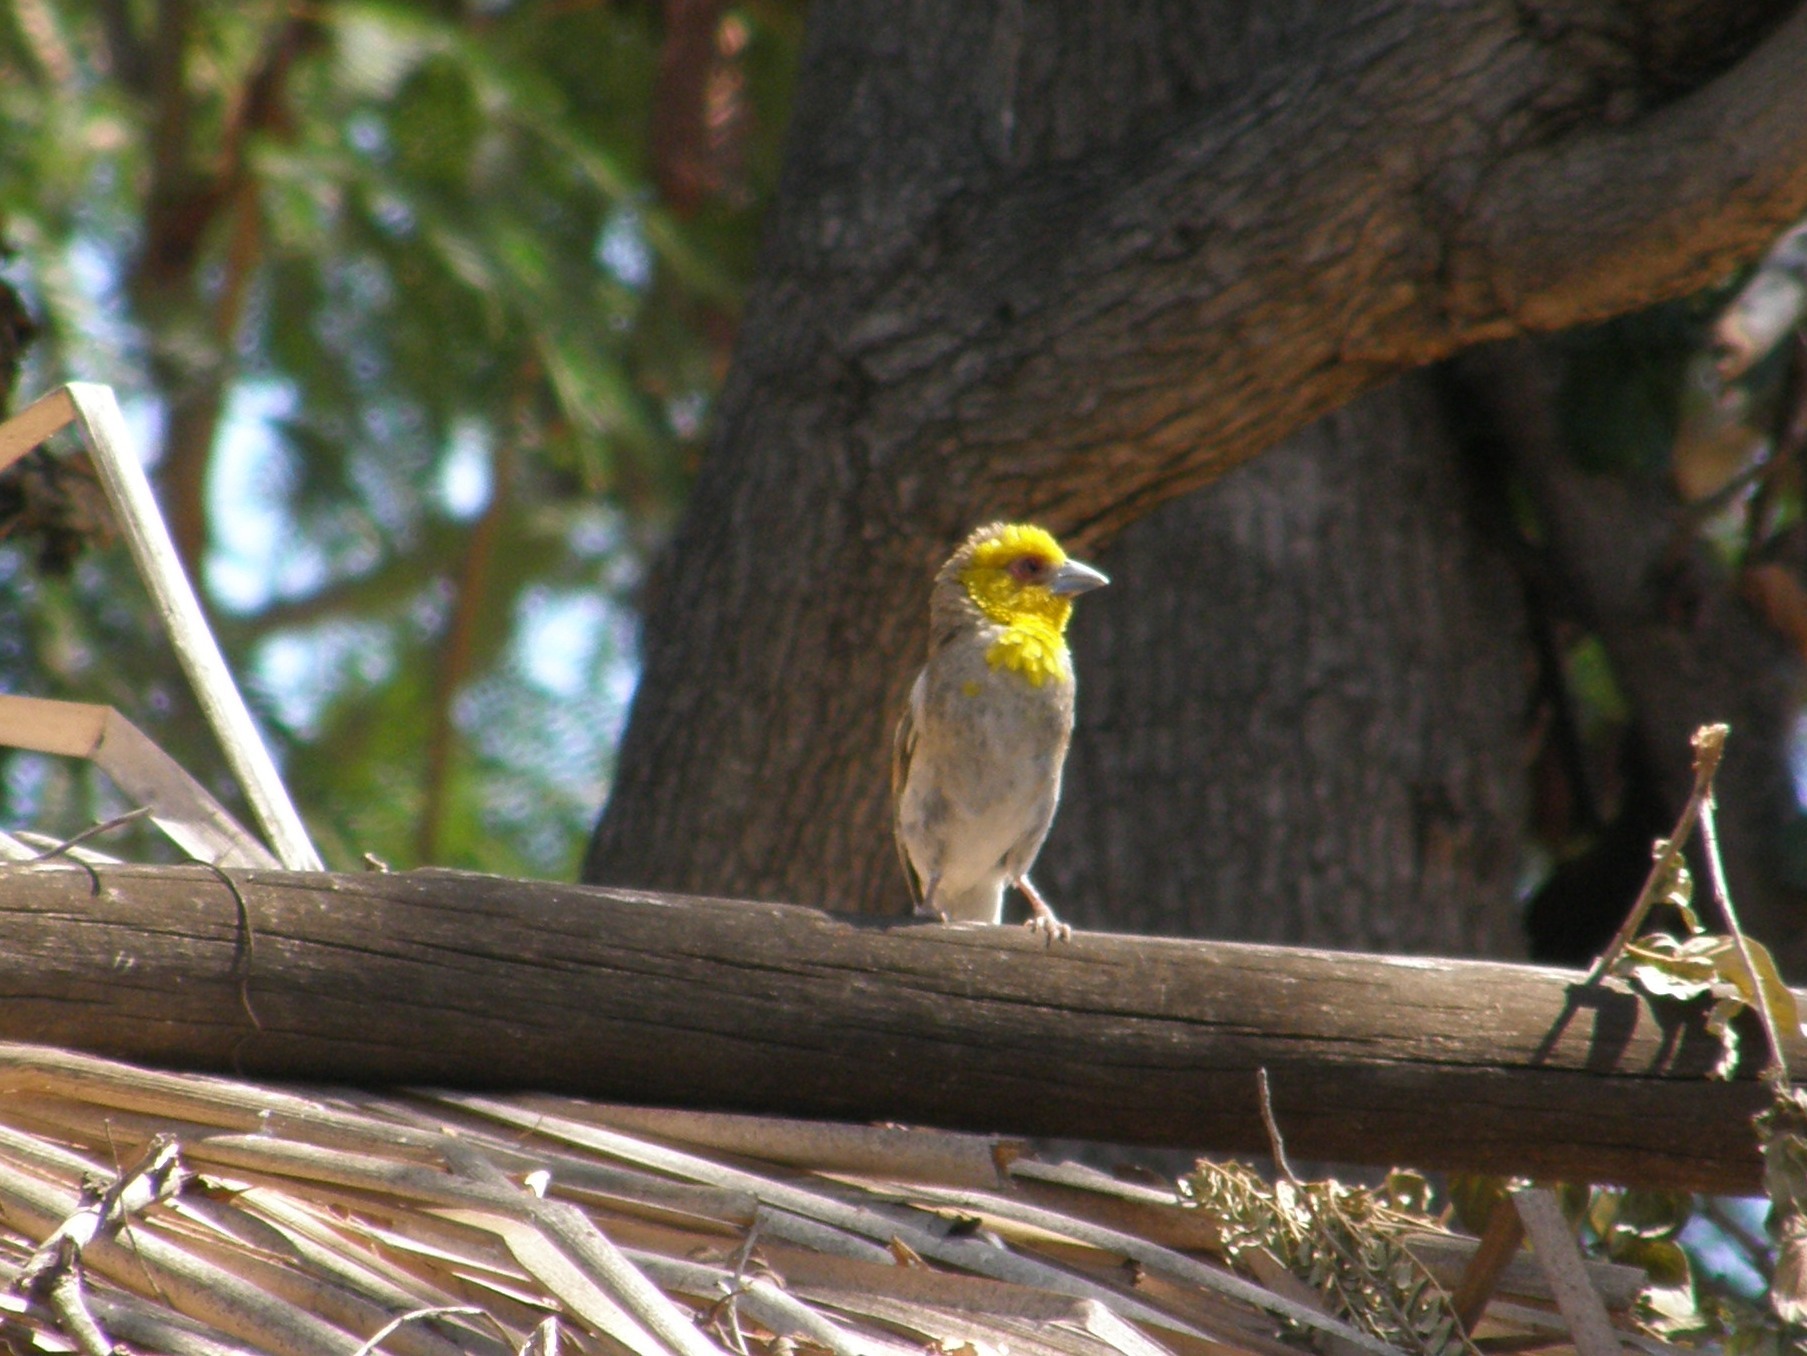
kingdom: Animalia
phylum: Chordata
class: Aves
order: Passeriformes
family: Ploceidae
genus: Ploceus
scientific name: Ploceus sakalava
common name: Sakalava weaver
